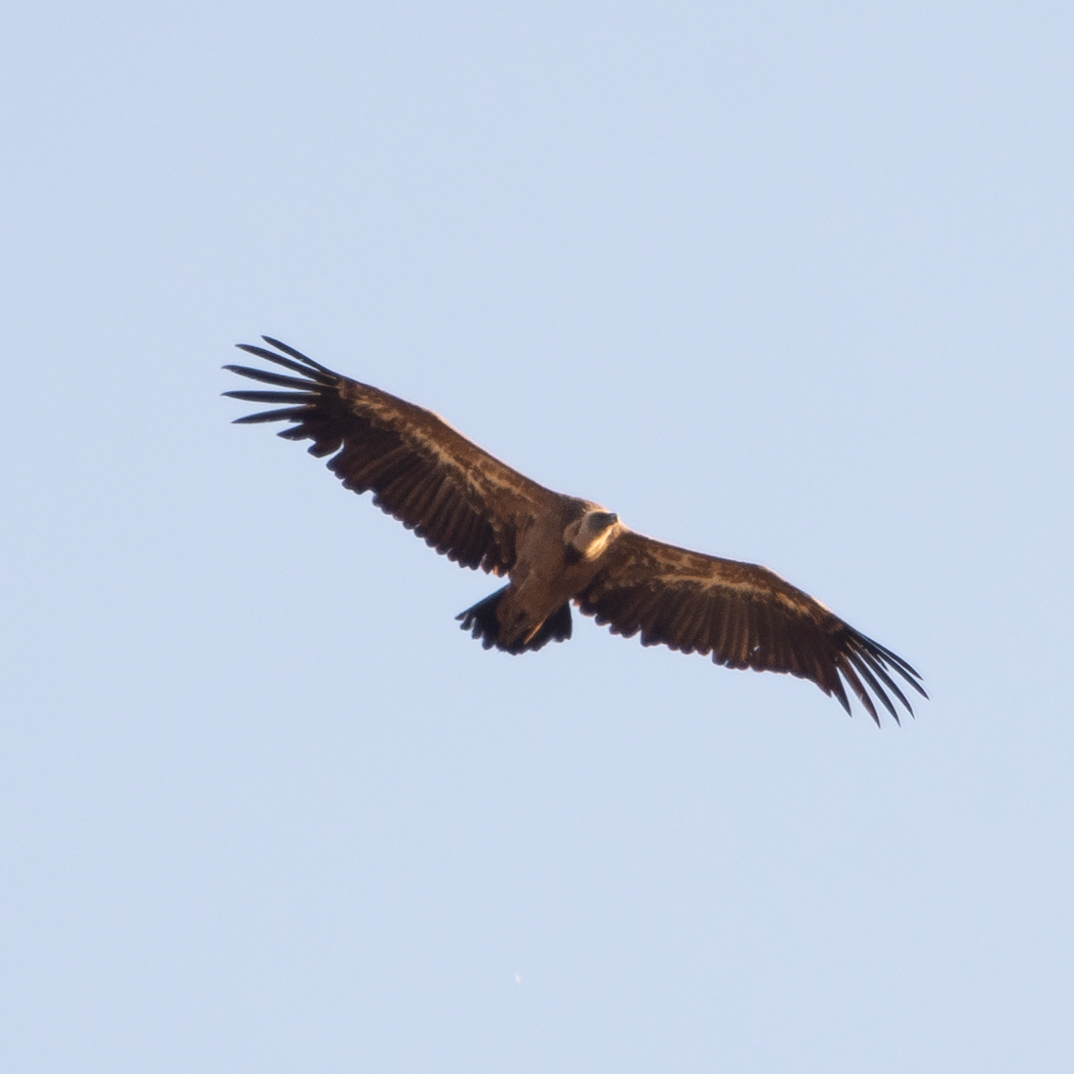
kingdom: Animalia
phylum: Chordata
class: Aves
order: Accipitriformes
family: Accipitridae
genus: Gyps
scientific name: Gyps fulvus
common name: Griffon vulture
